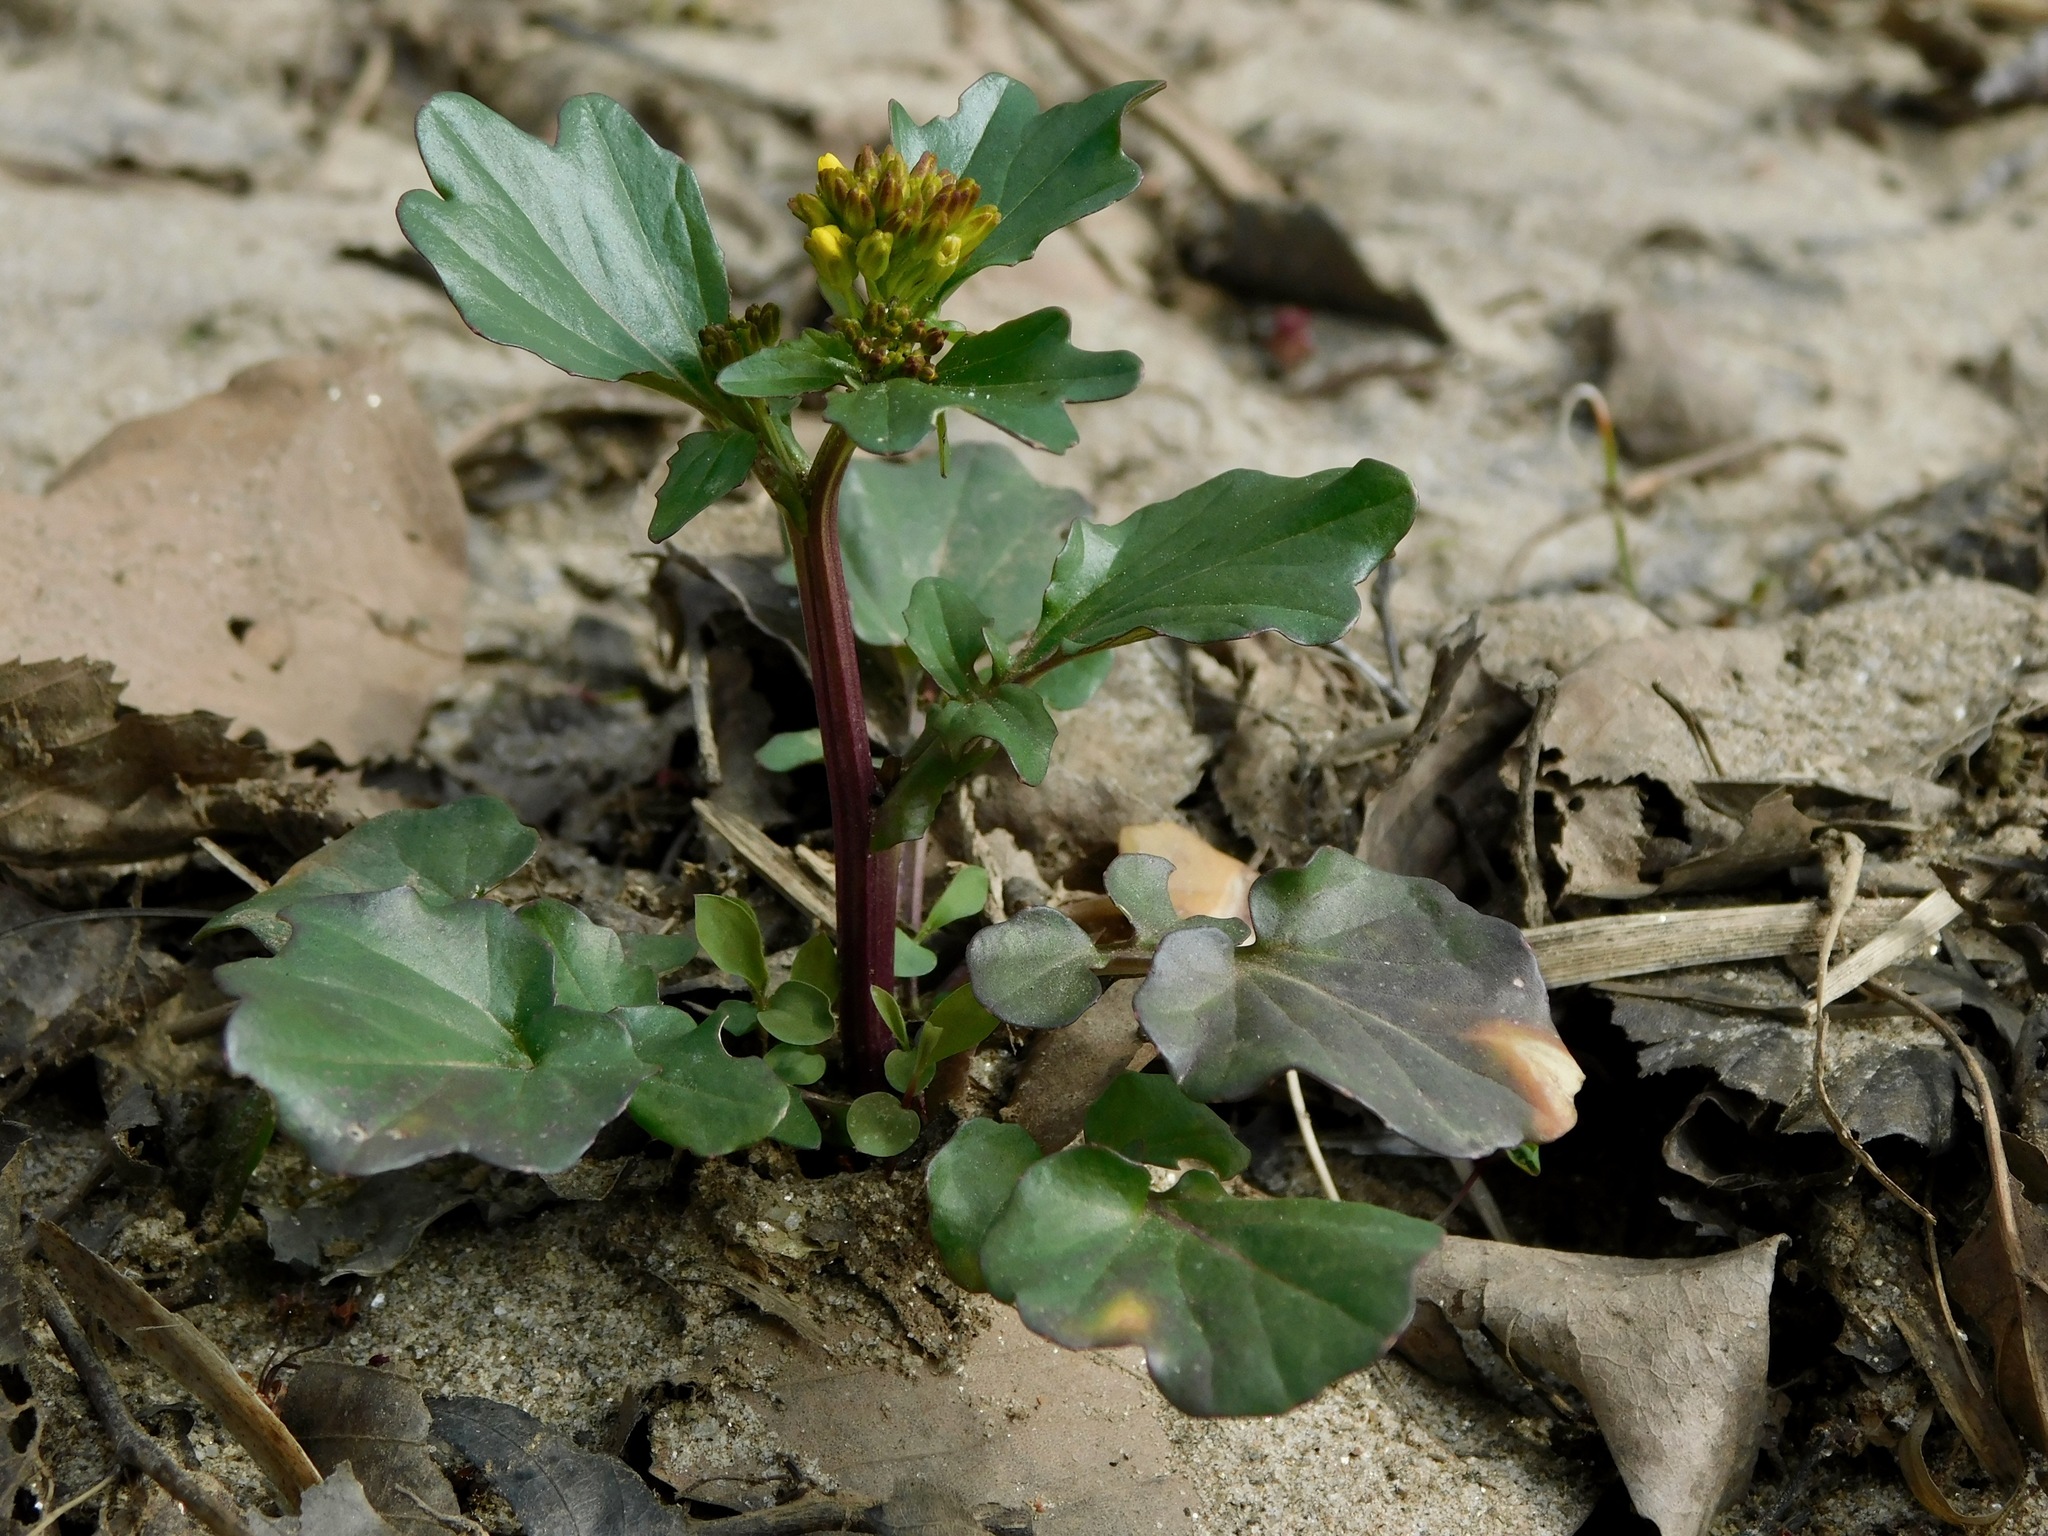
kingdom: Plantae
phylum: Tracheophyta
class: Magnoliopsida
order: Brassicales
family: Brassicaceae
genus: Barbarea
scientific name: Barbarea vulgaris
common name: Cressy-greens
